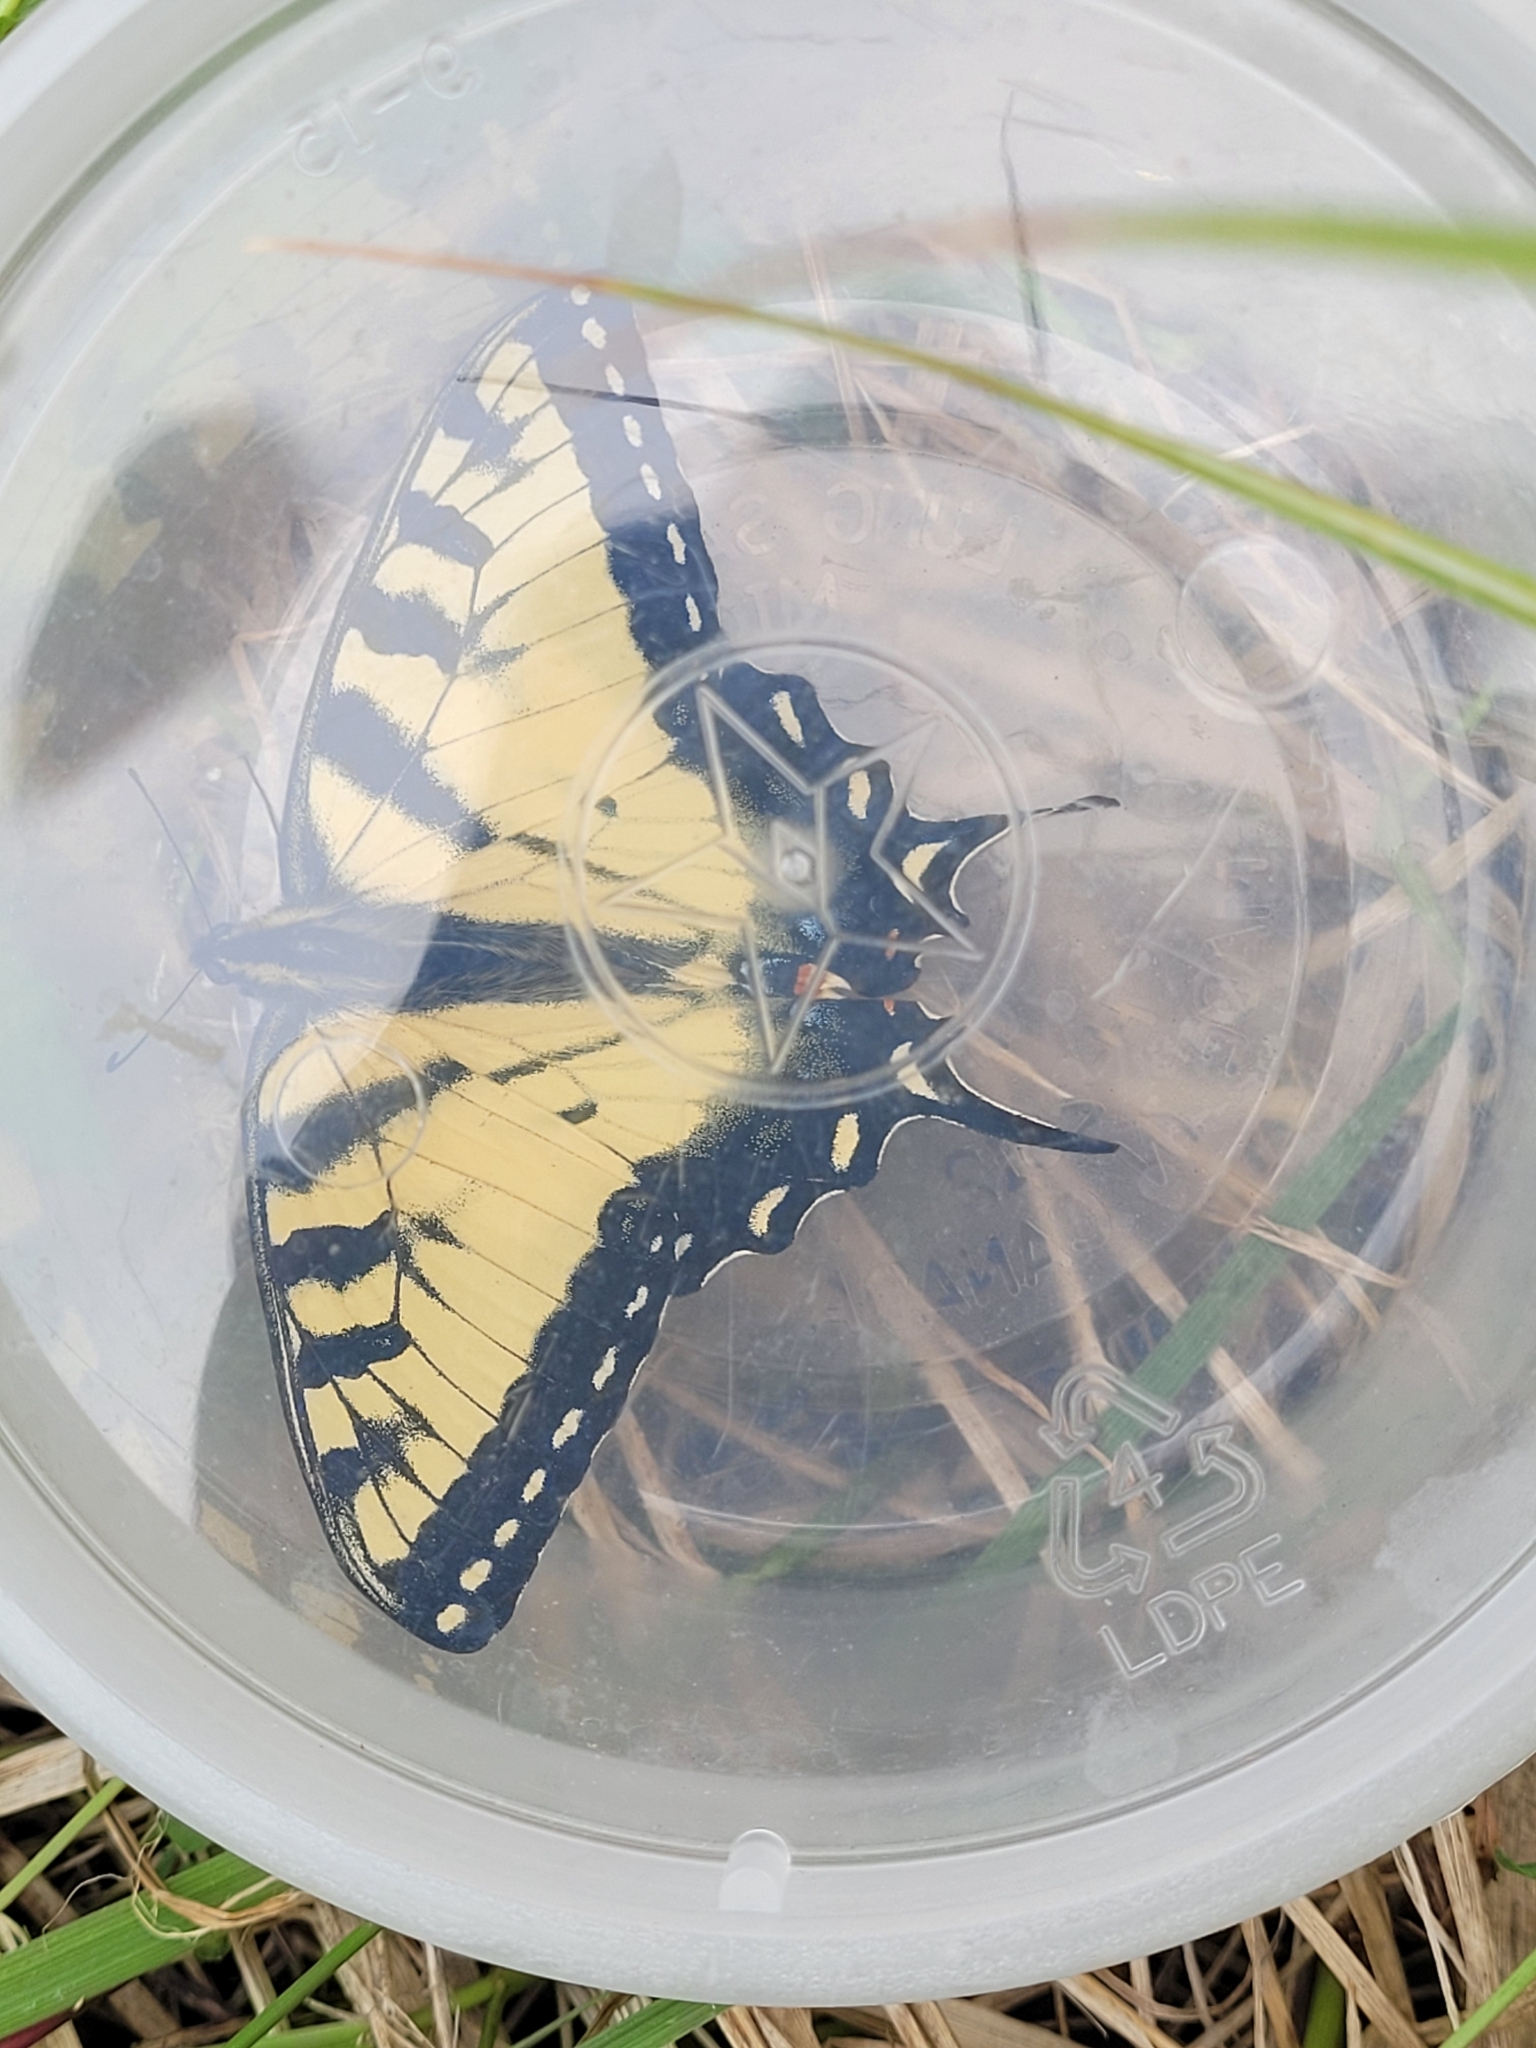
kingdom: Animalia
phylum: Arthropoda
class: Insecta
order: Lepidoptera
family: Papilionidae
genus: Papilio
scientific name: Papilio glaucus
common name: Tiger swallowtail
